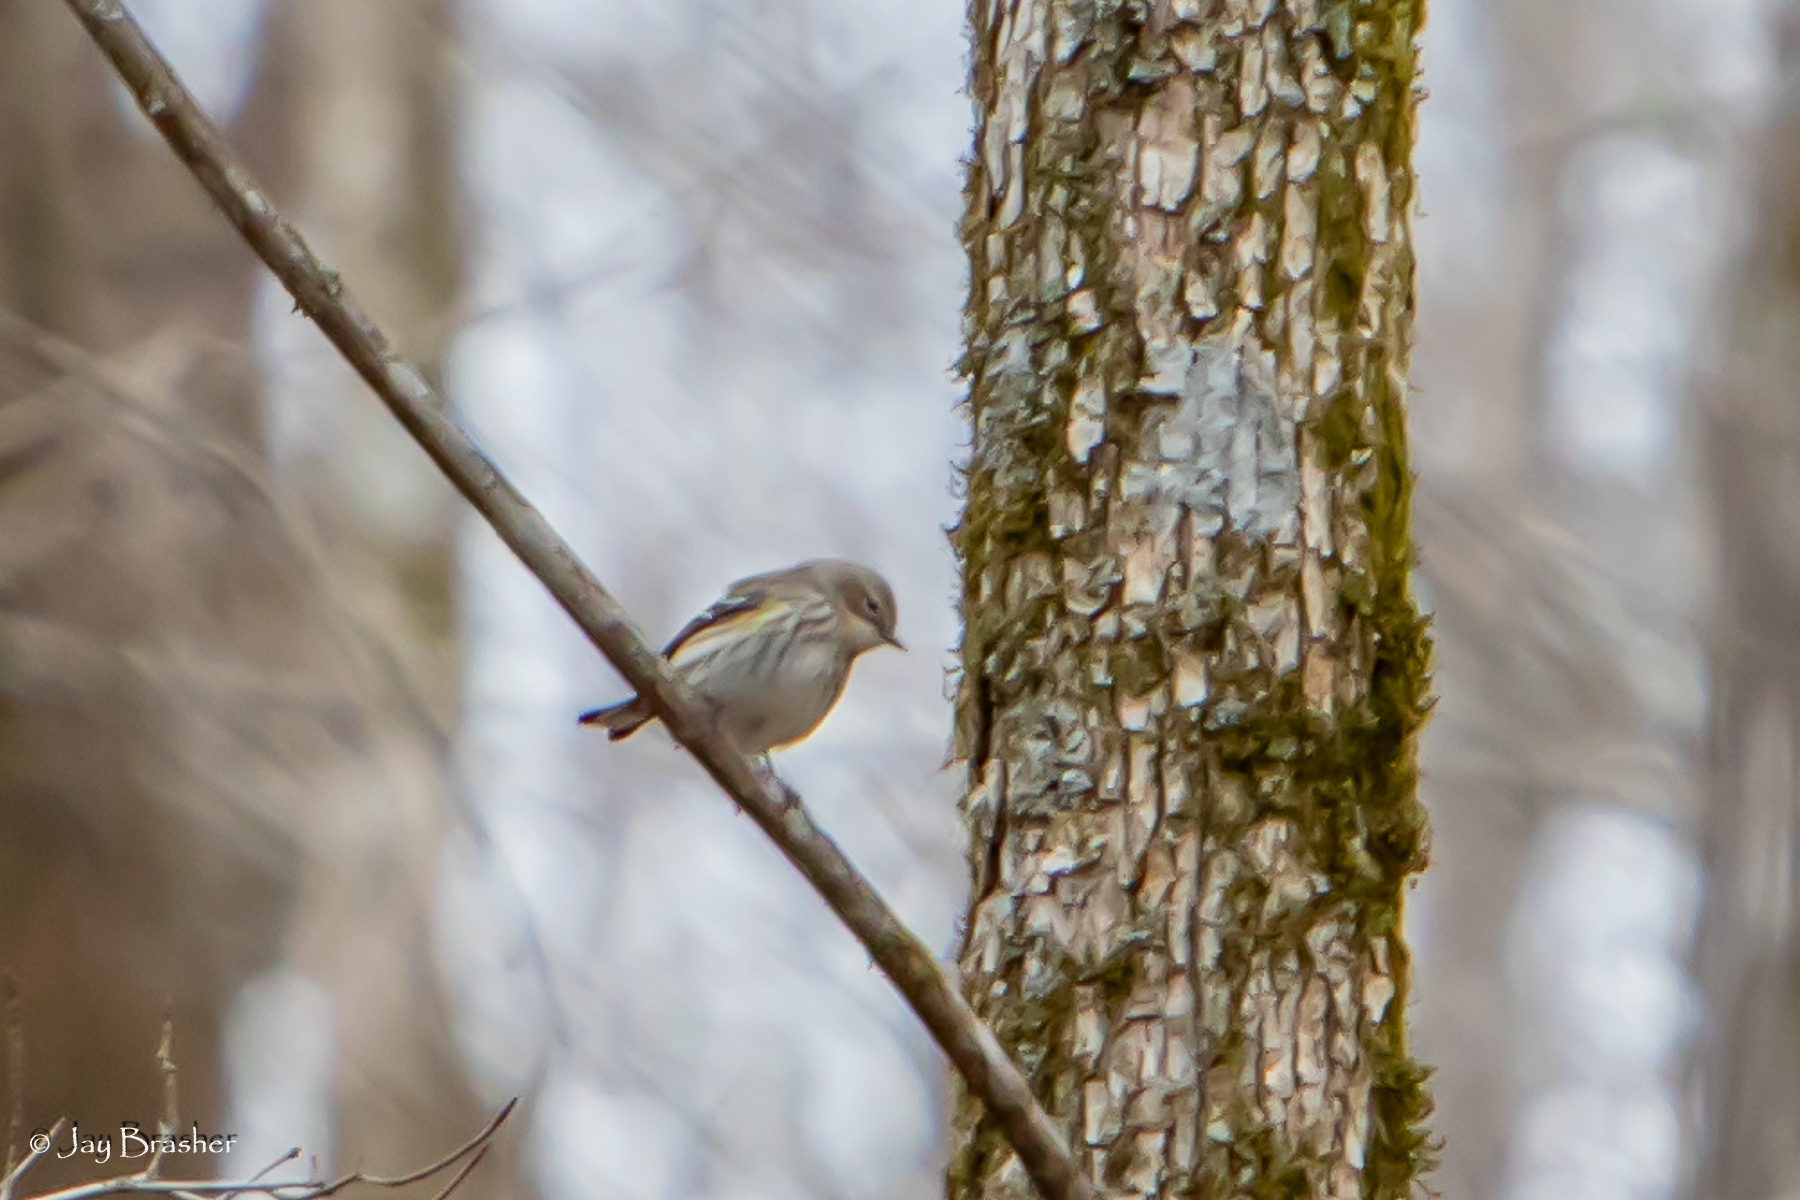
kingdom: Animalia
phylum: Chordata
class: Aves
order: Passeriformes
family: Parulidae
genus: Setophaga
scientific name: Setophaga coronata
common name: Myrtle warbler
